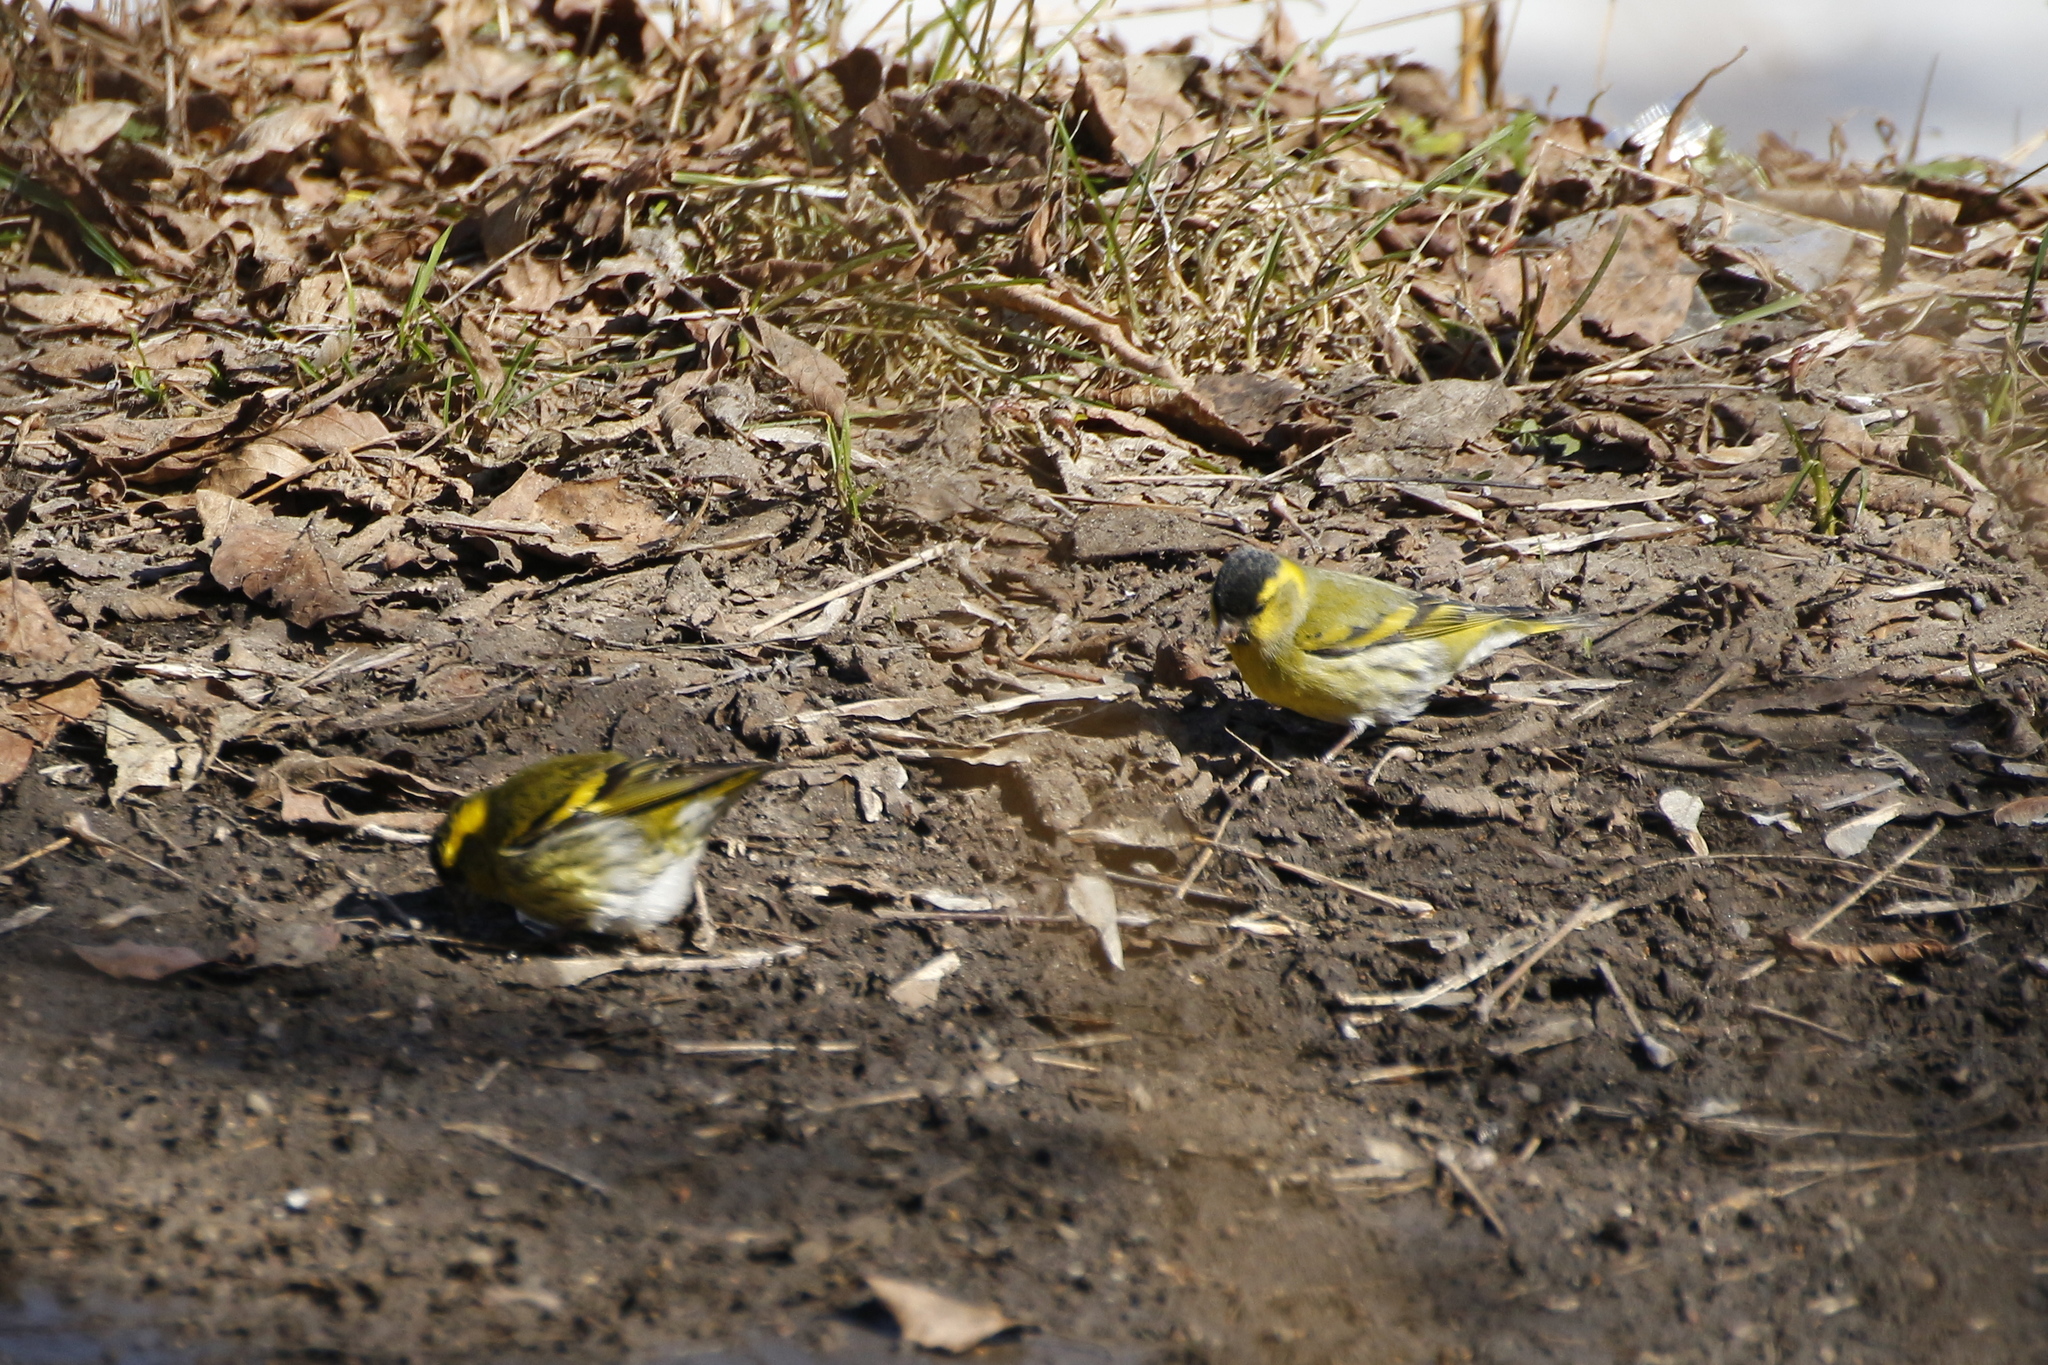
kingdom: Animalia
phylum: Chordata
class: Aves
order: Passeriformes
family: Fringillidae
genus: Spinus
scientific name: Spinus spinus
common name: Eurasian siskin
